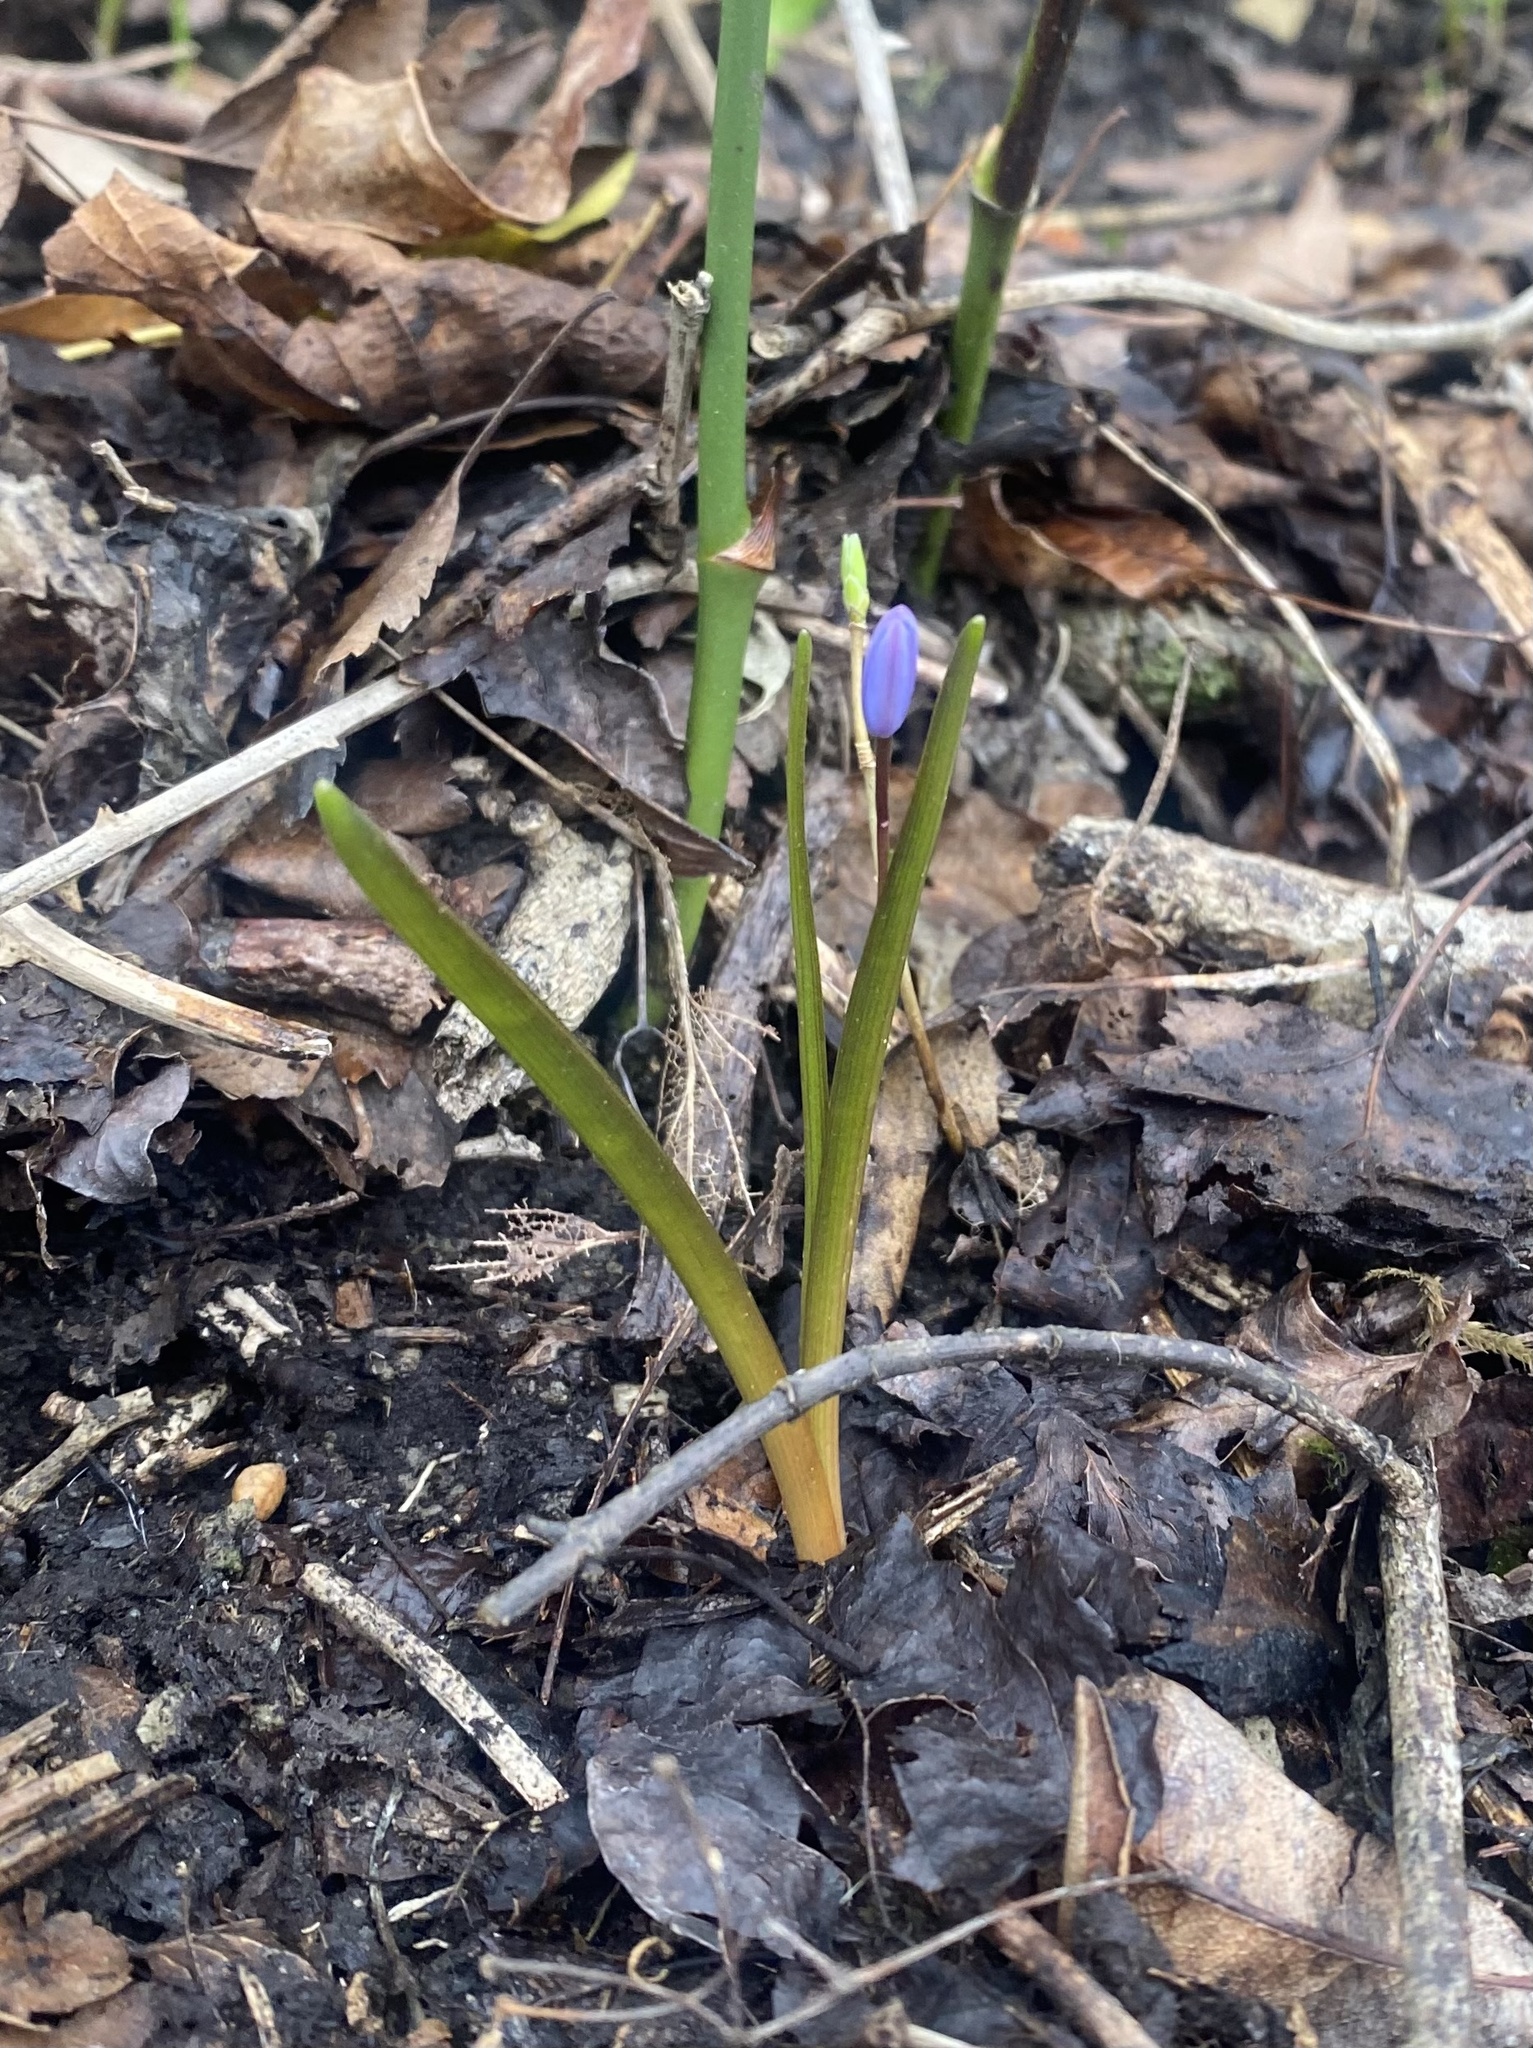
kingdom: Plantae
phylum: Tracheophyta
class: Liliopsida
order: Asparagales
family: Asparagaceae
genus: Scilla
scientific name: Scilla bifolia
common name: Alpine squill
